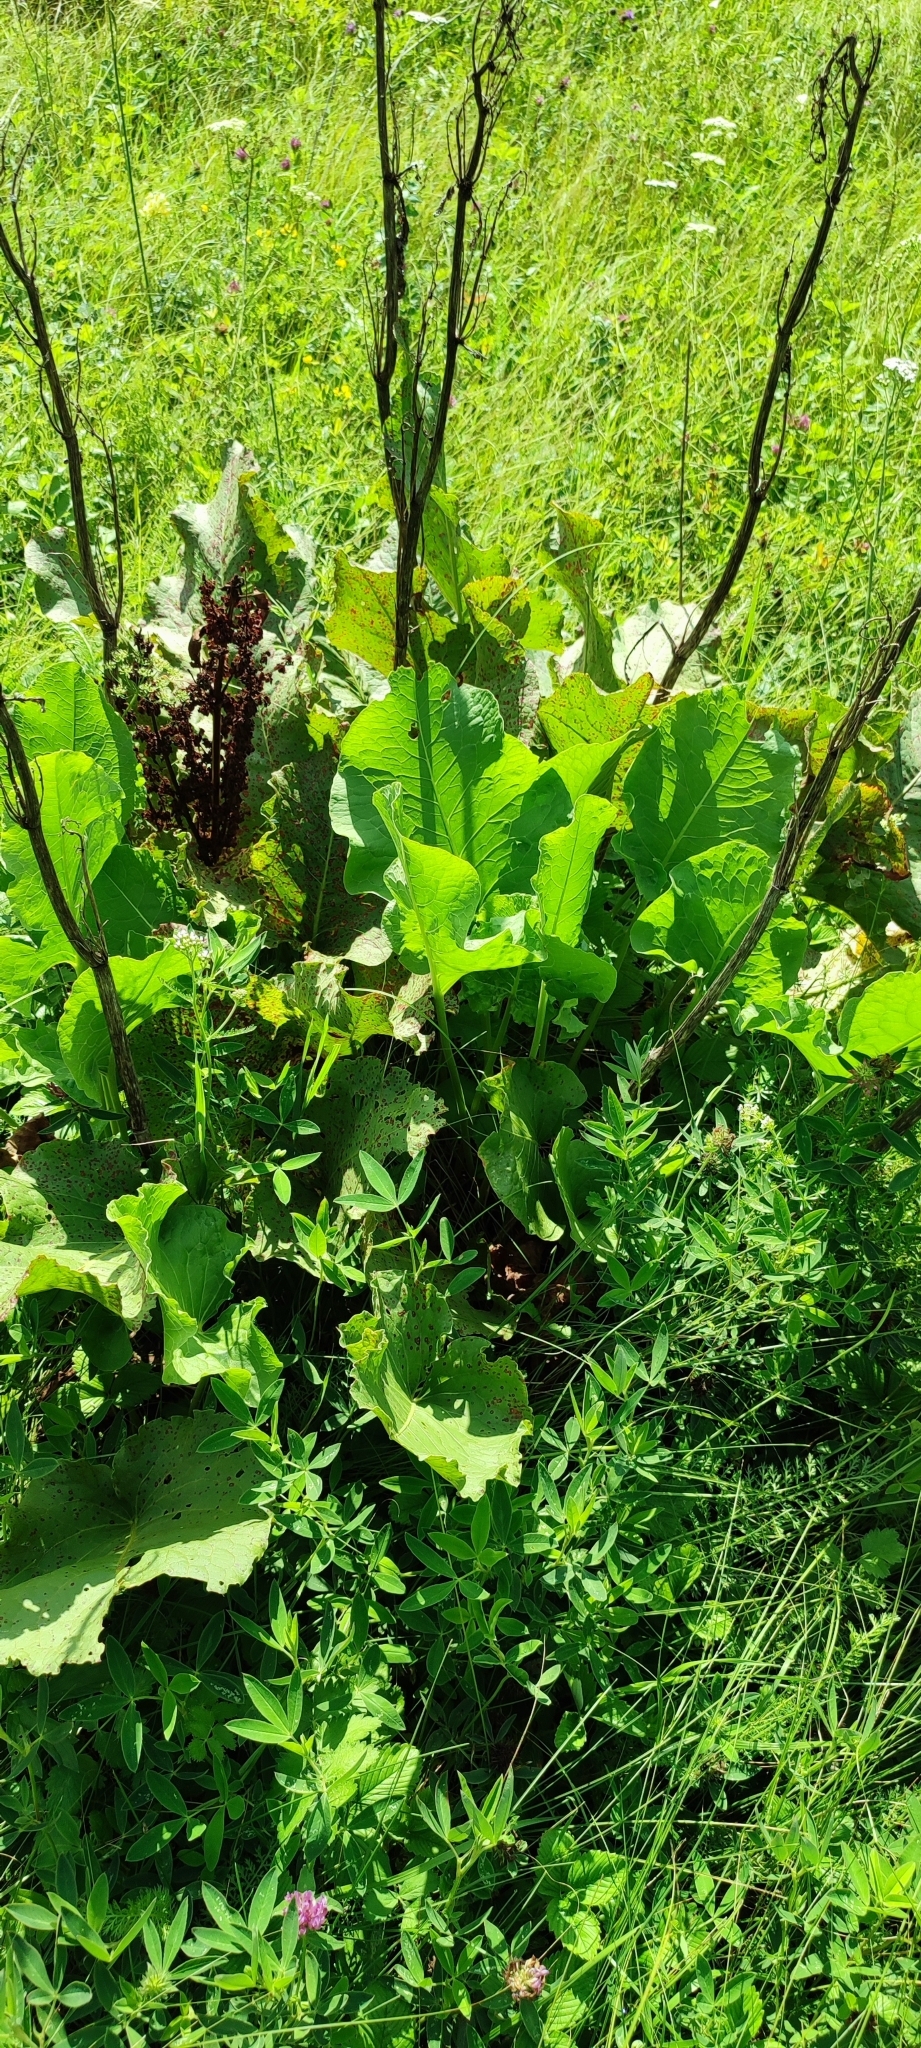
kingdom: Plantae
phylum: Tracheophyta
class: Magnoliopsida
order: Caryophyllales
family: Polygonaceae
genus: Rumex
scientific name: Rumex confertus
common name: Russian dock
